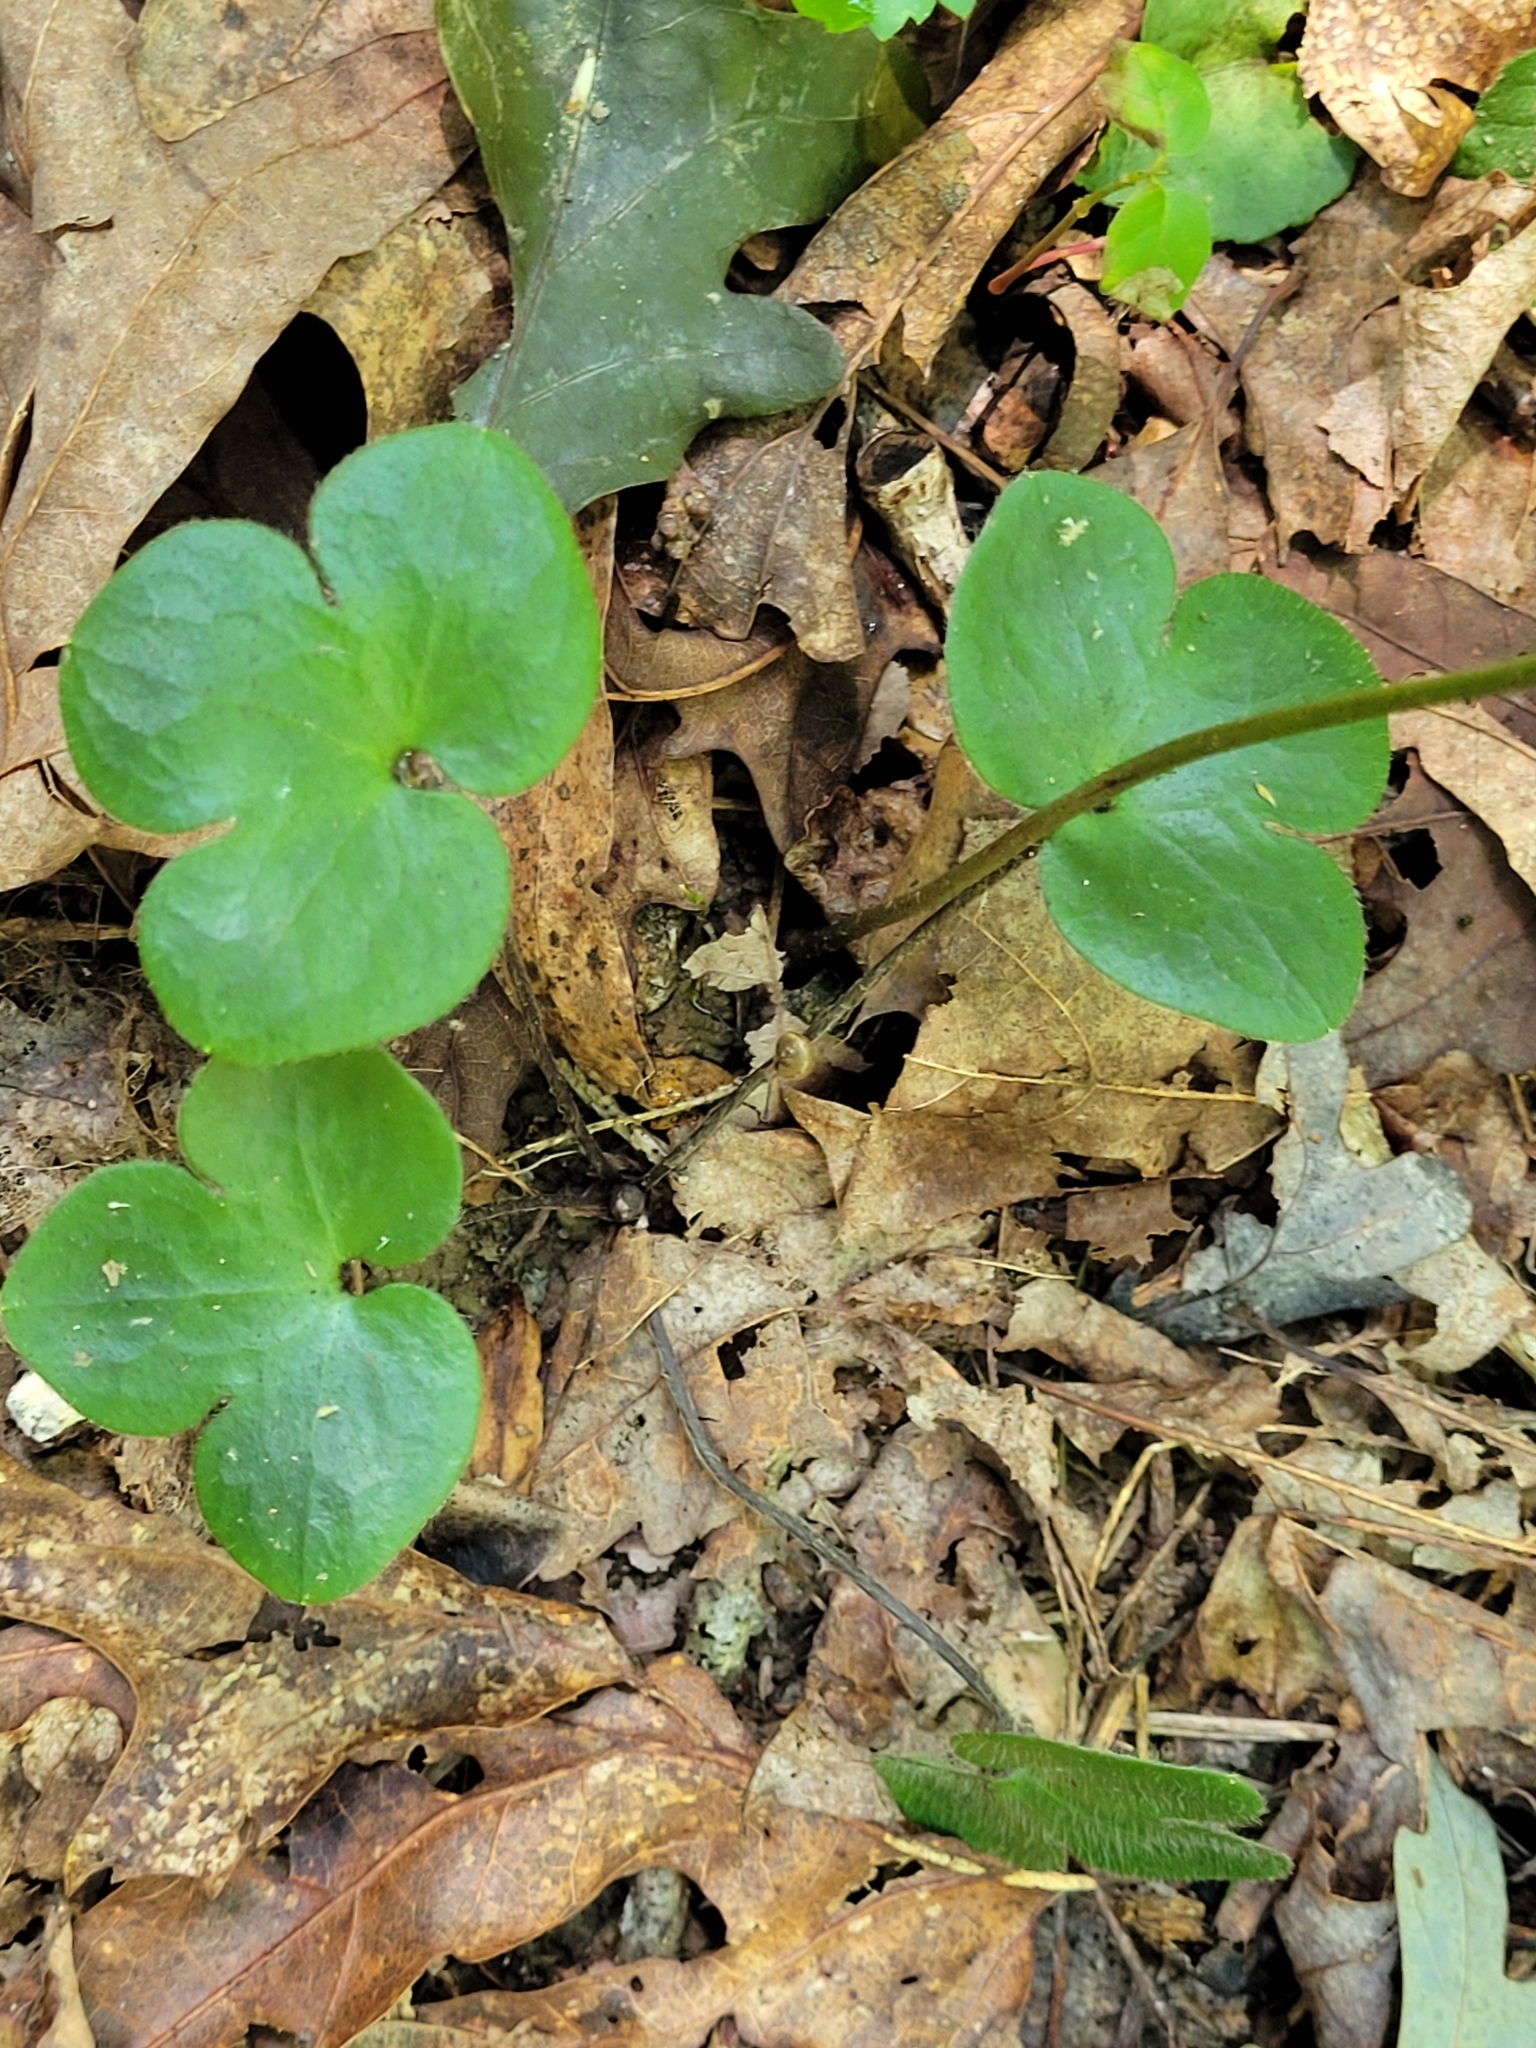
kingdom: Plantae
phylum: Tracheophyta
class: Magnoliopsida
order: Ranunculales
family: Ranunculaceae
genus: Hepatica
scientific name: Hepatica americana
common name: American hepatica
